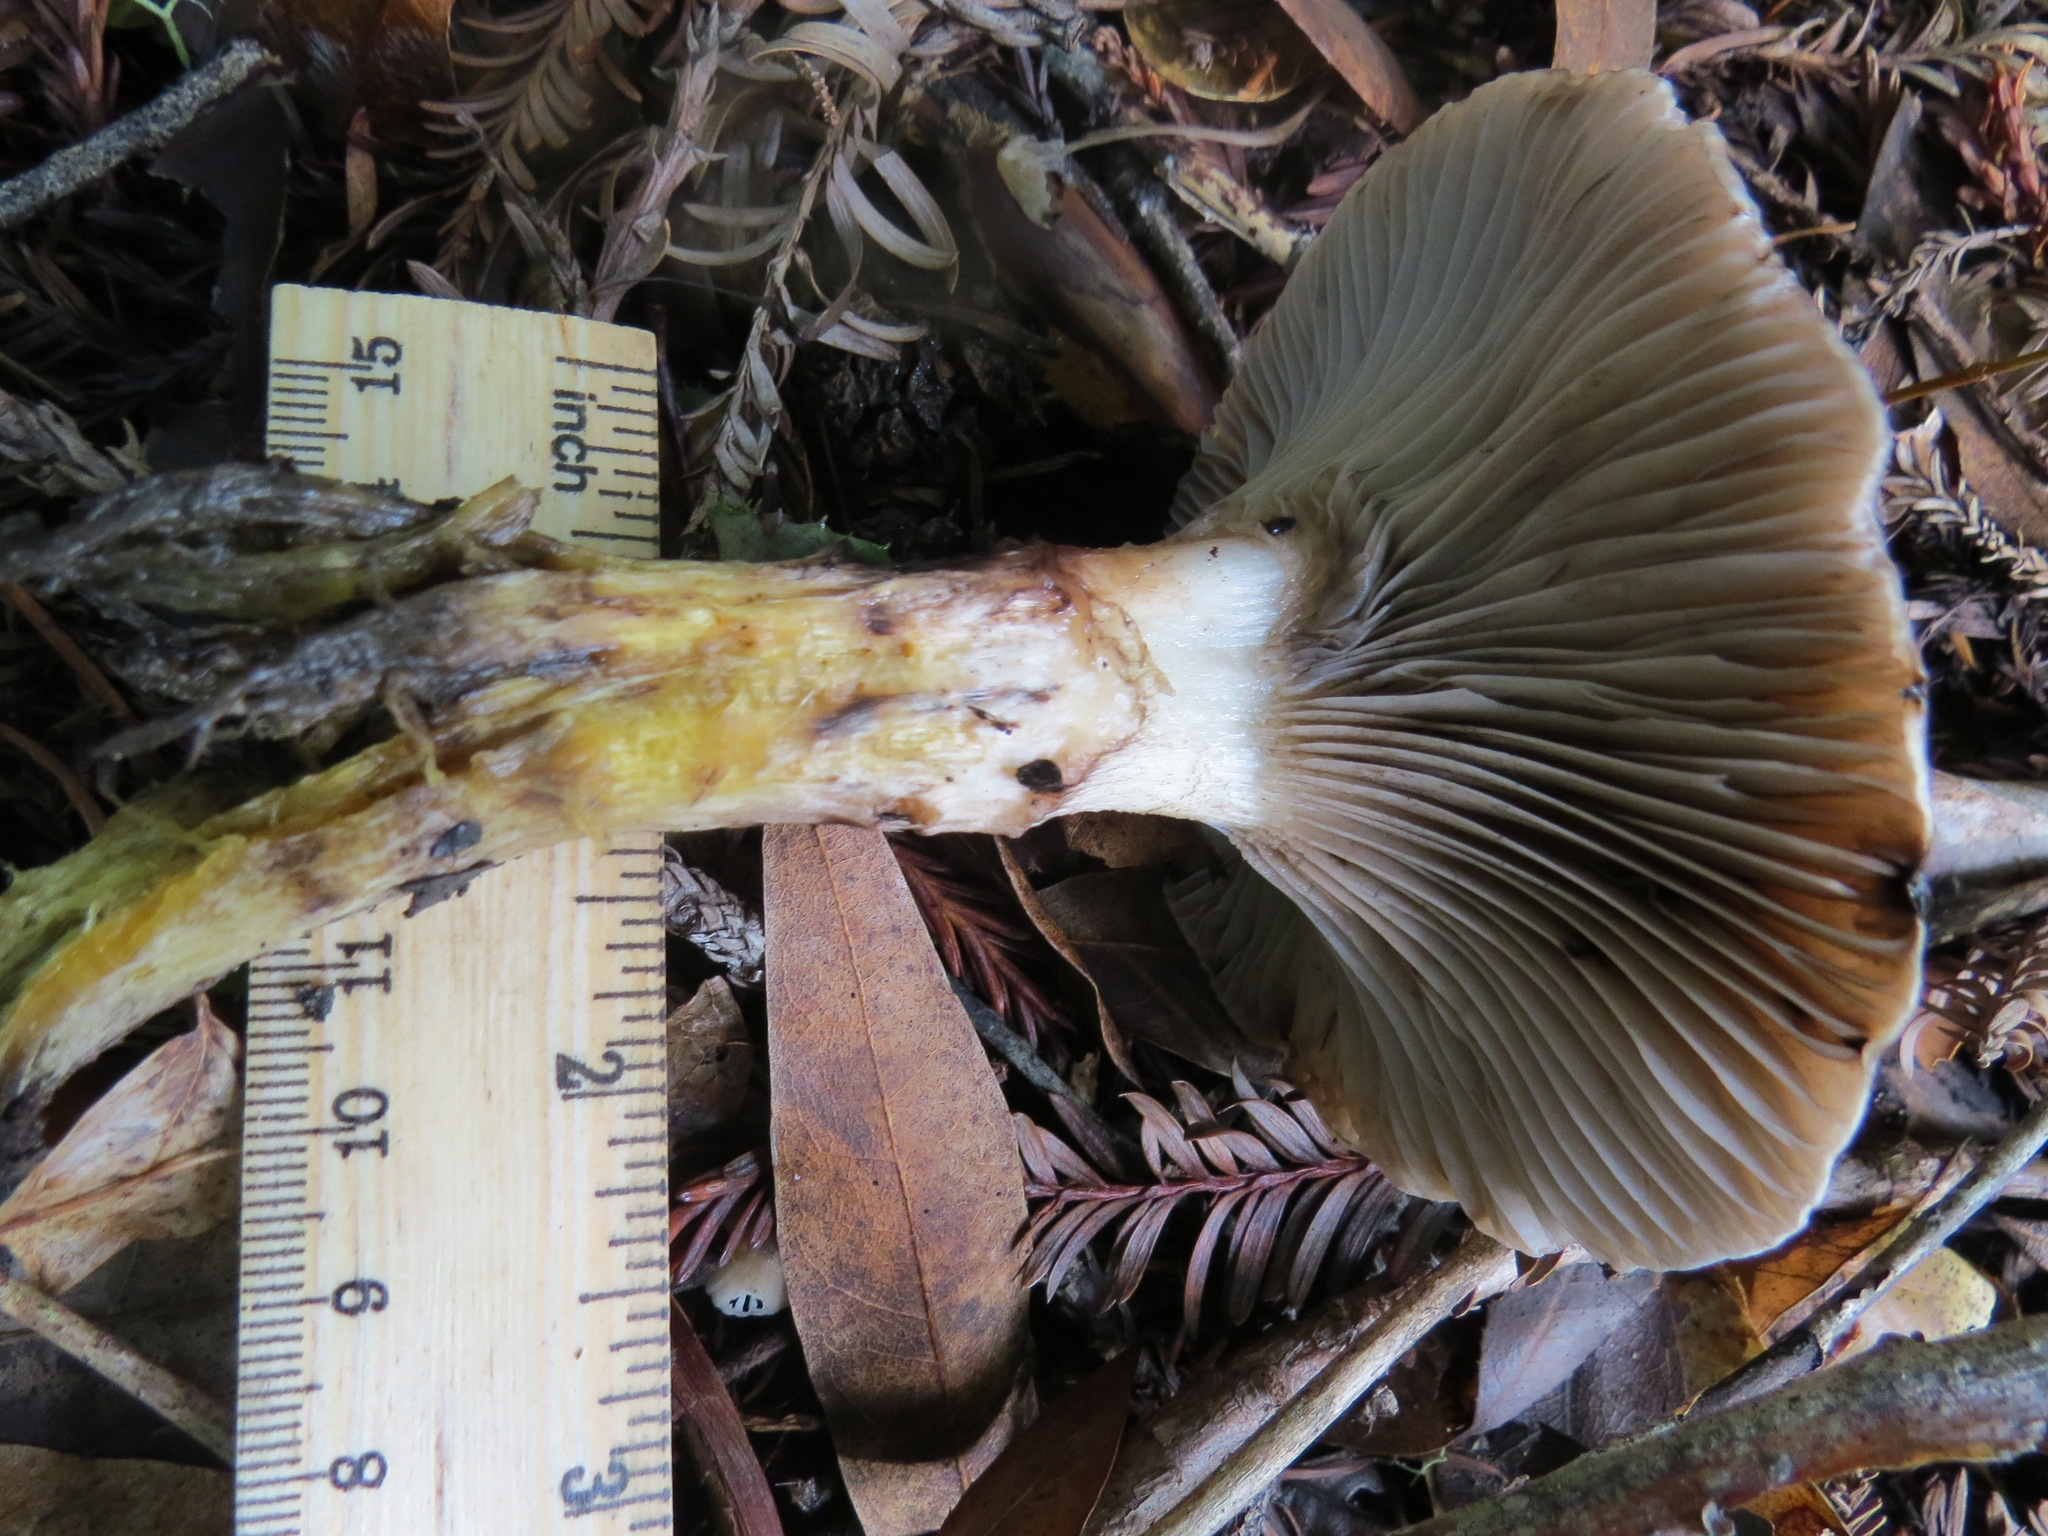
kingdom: Fungi
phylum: Basidiomycota
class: Agaricomycetes
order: Boletales
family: Gomphidiaceae
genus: Gomphidius
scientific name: Gomphidius oregonensis
